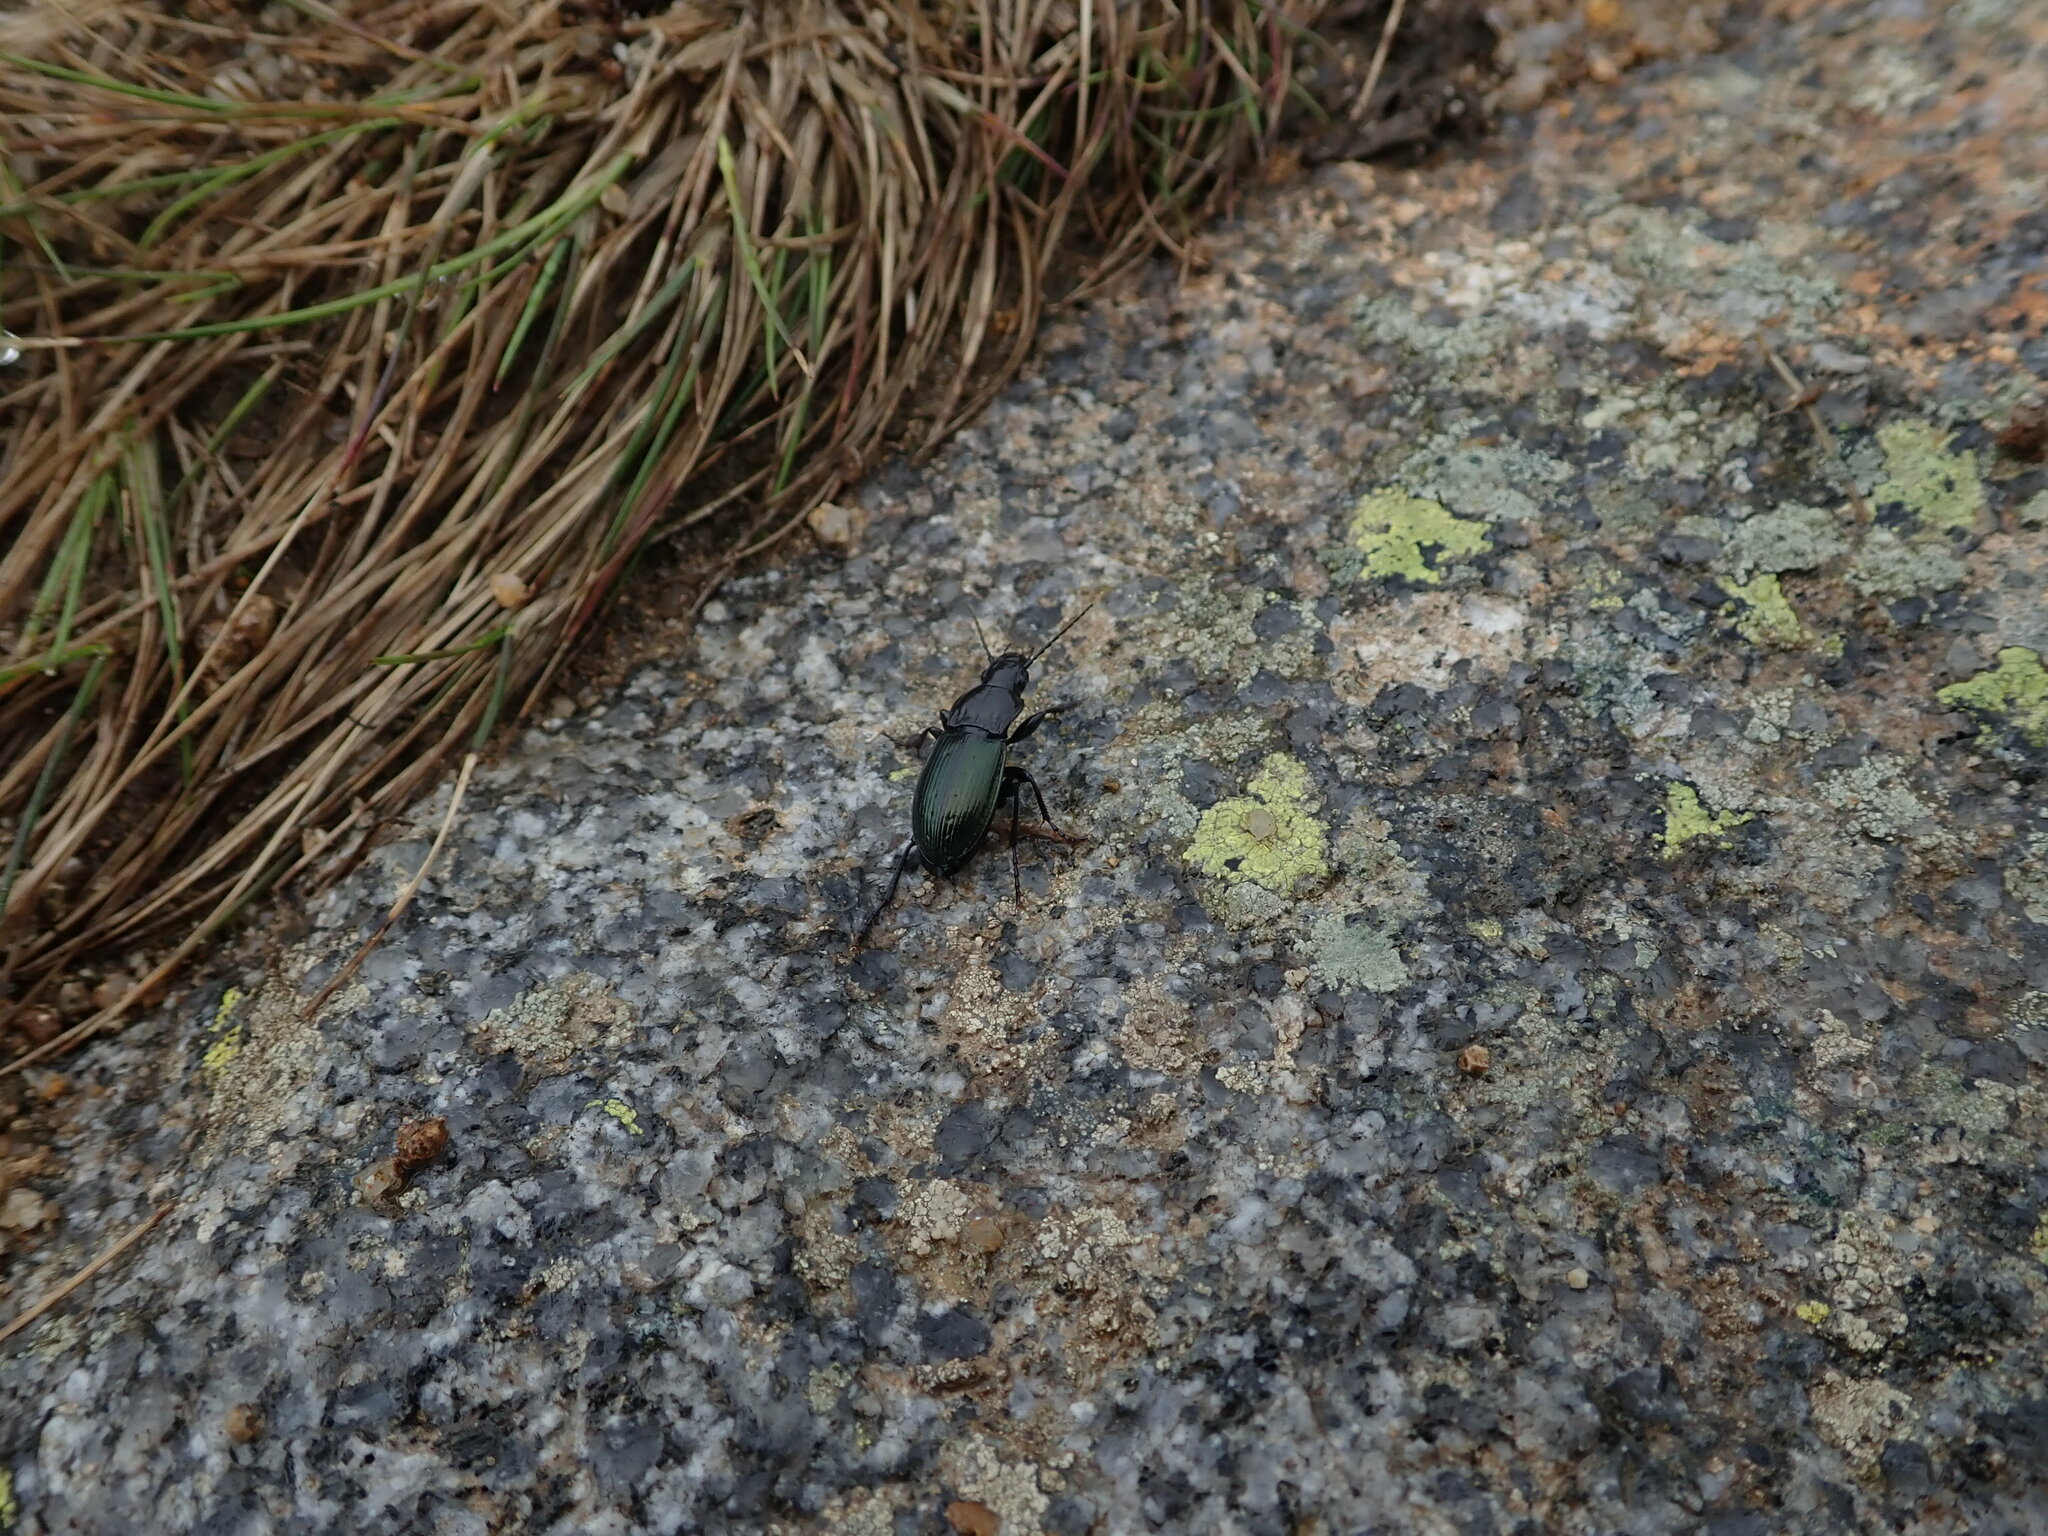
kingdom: Animalia
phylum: Arthropoda
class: Insecta
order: Coleoptera
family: Carabidae
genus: Pterostichus
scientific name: Pterostichus foveolatus
